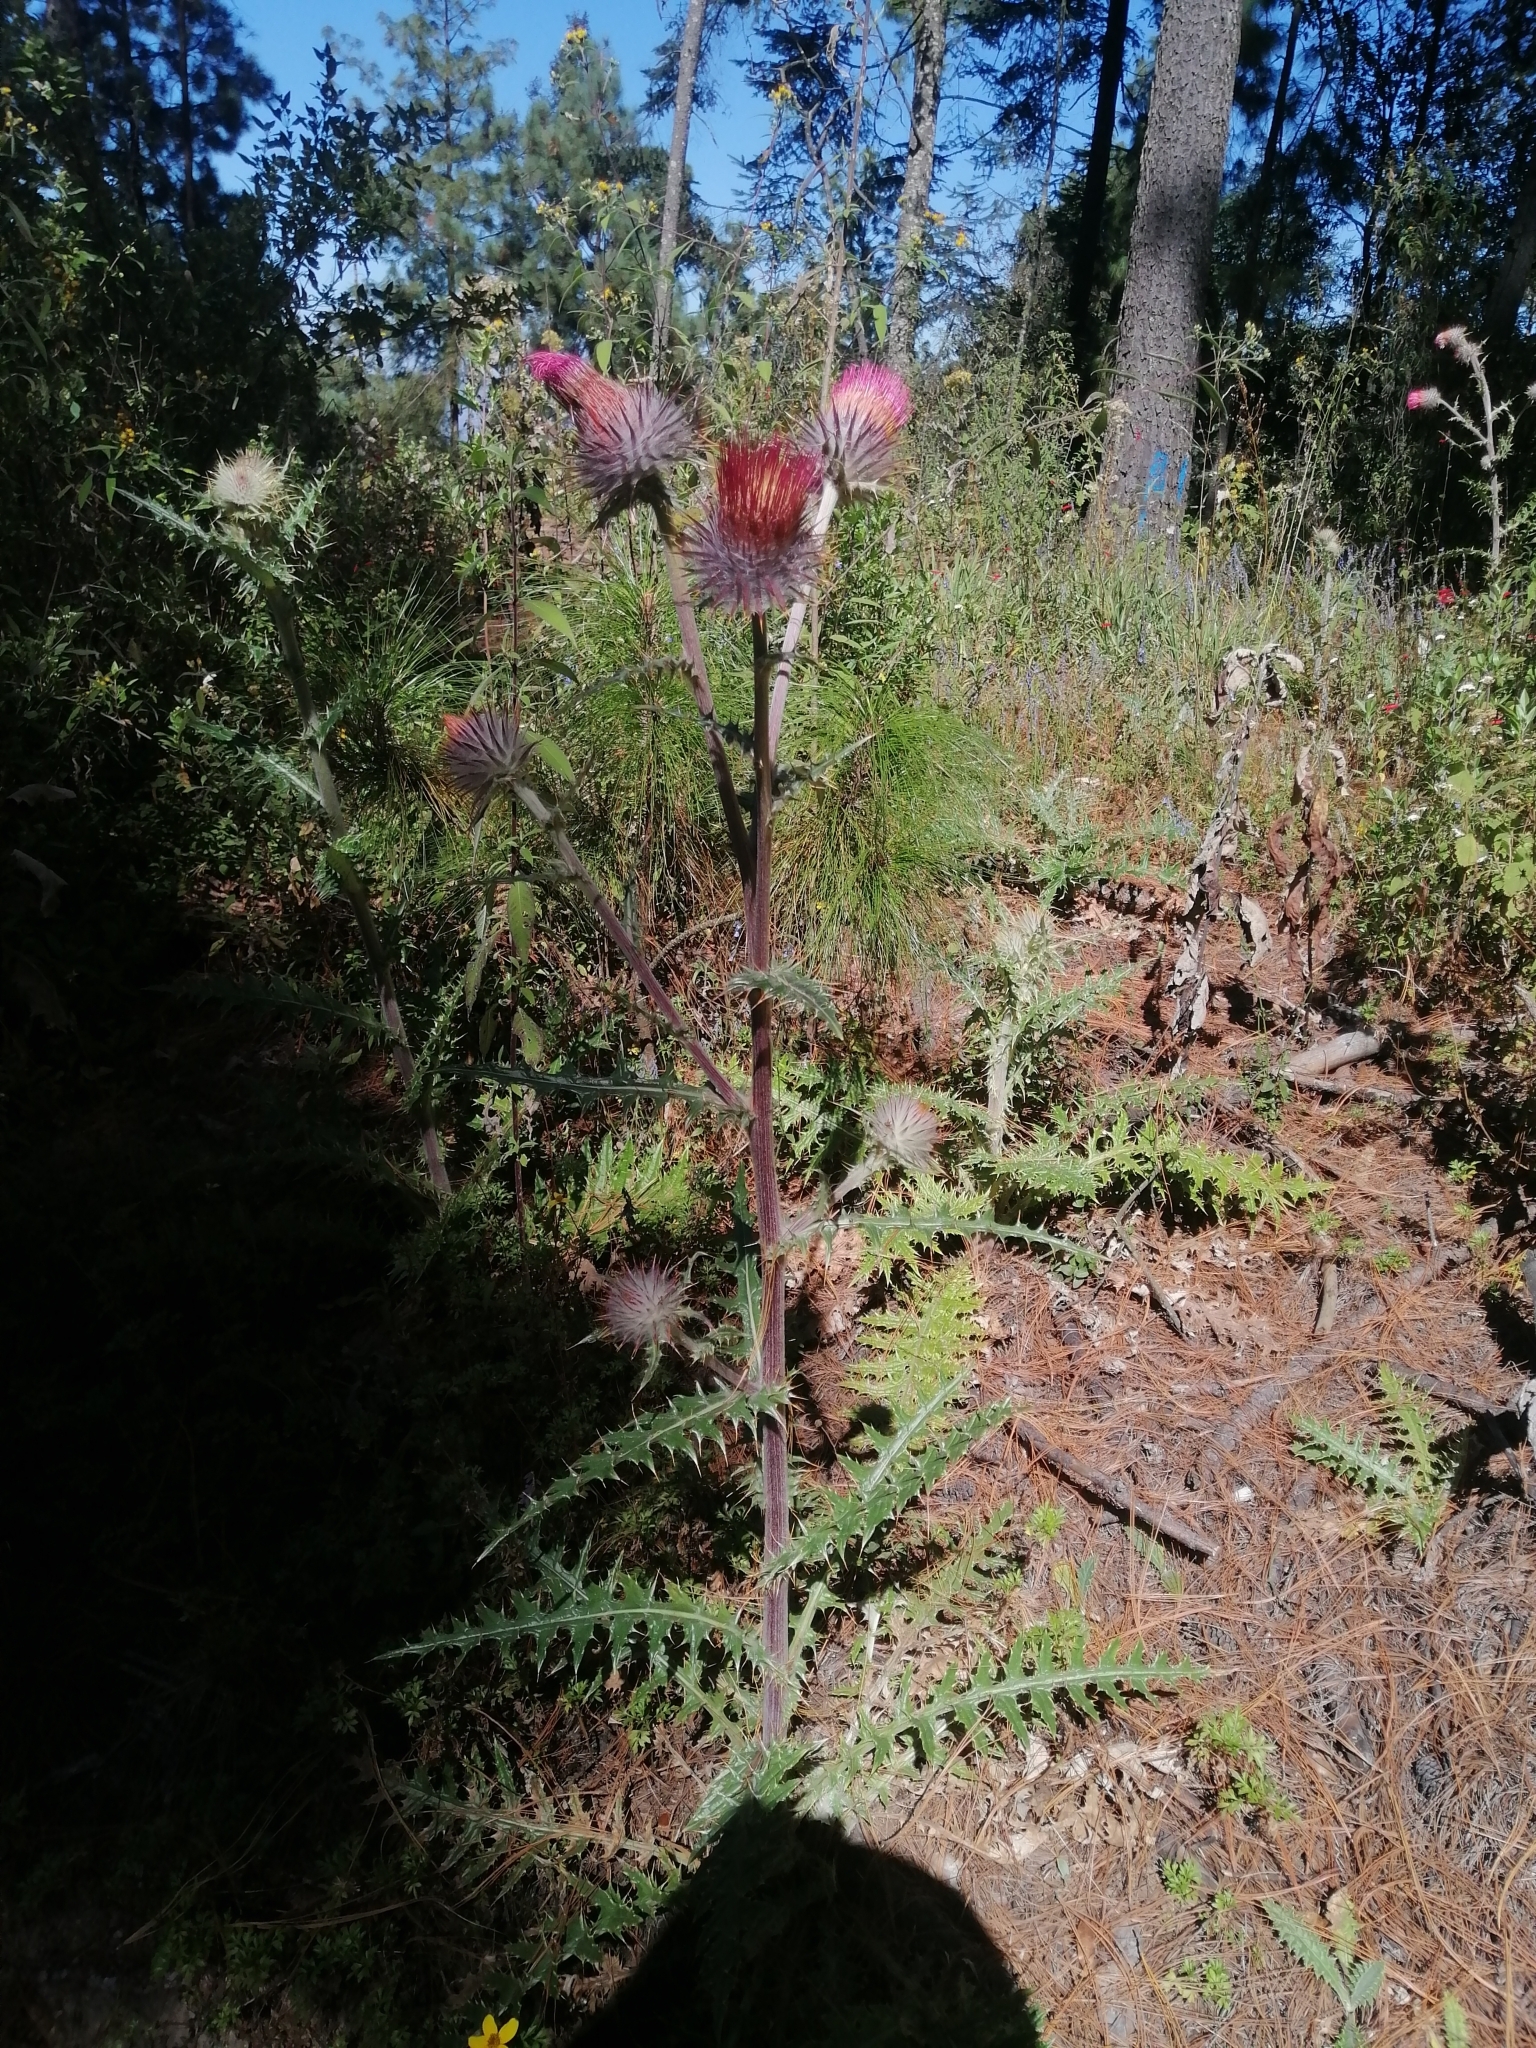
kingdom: Plantae
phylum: Tracheophyta
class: Magnoliopsida
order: Asterales
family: Asteraceae
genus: Cirsium
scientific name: Cirsium ehrenbergii
